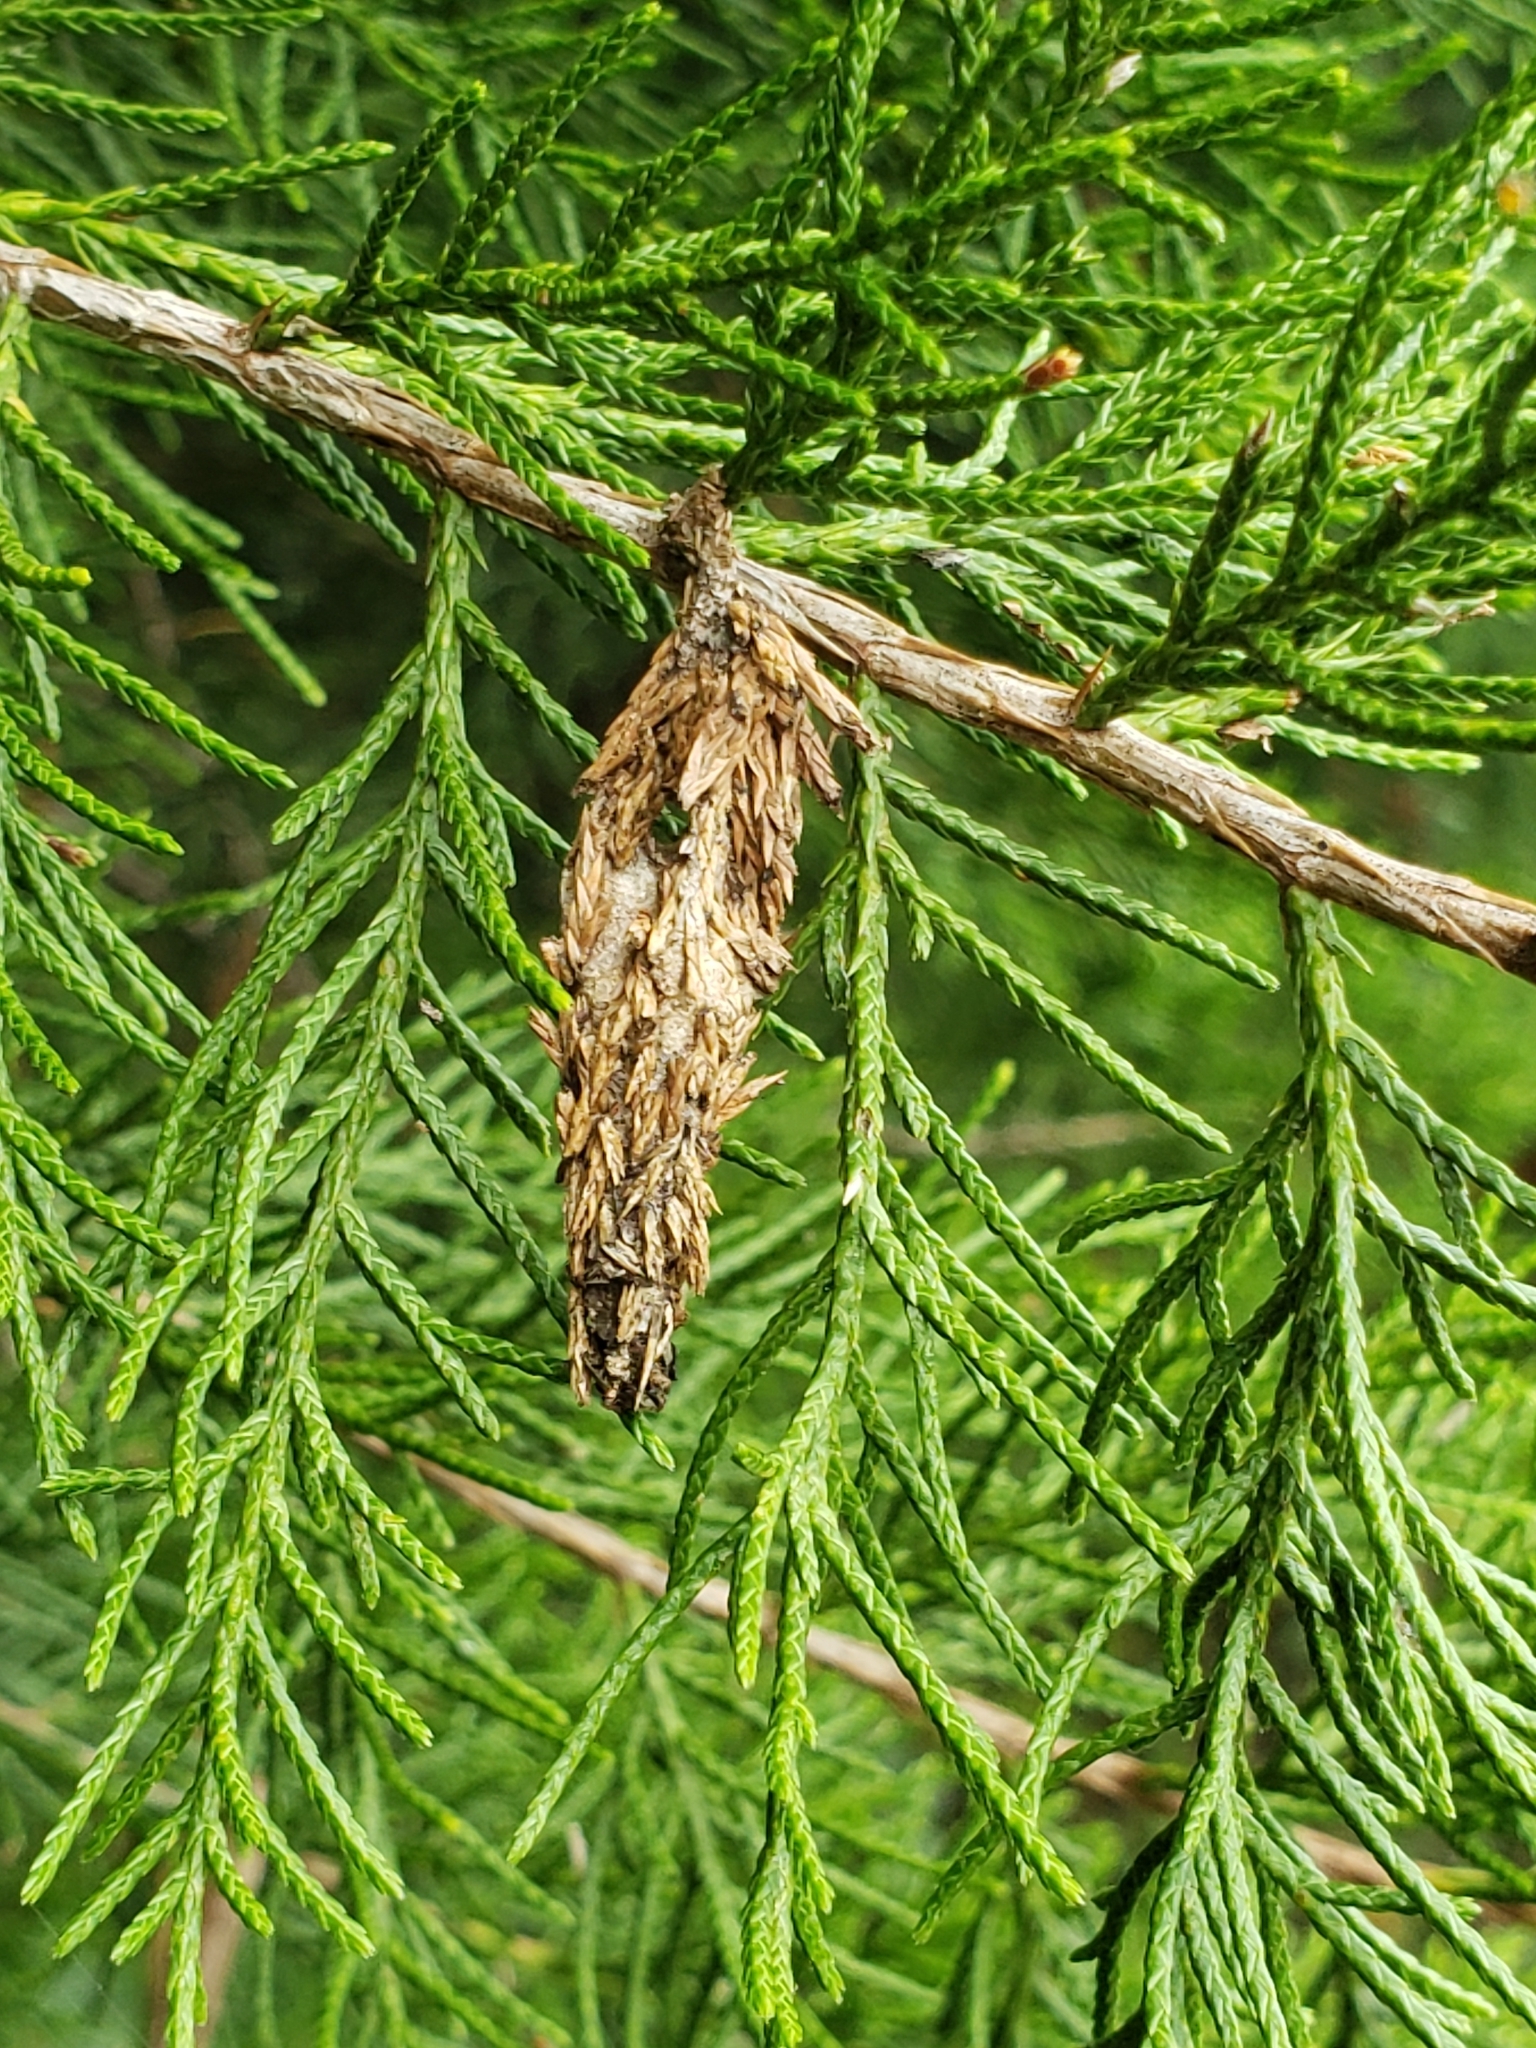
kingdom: Animalia
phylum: Arthropoda
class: Insecta
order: Lepidoptera
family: Psychidae
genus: Thyridopteryx
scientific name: Thyridopteryx ephemeraeformis
